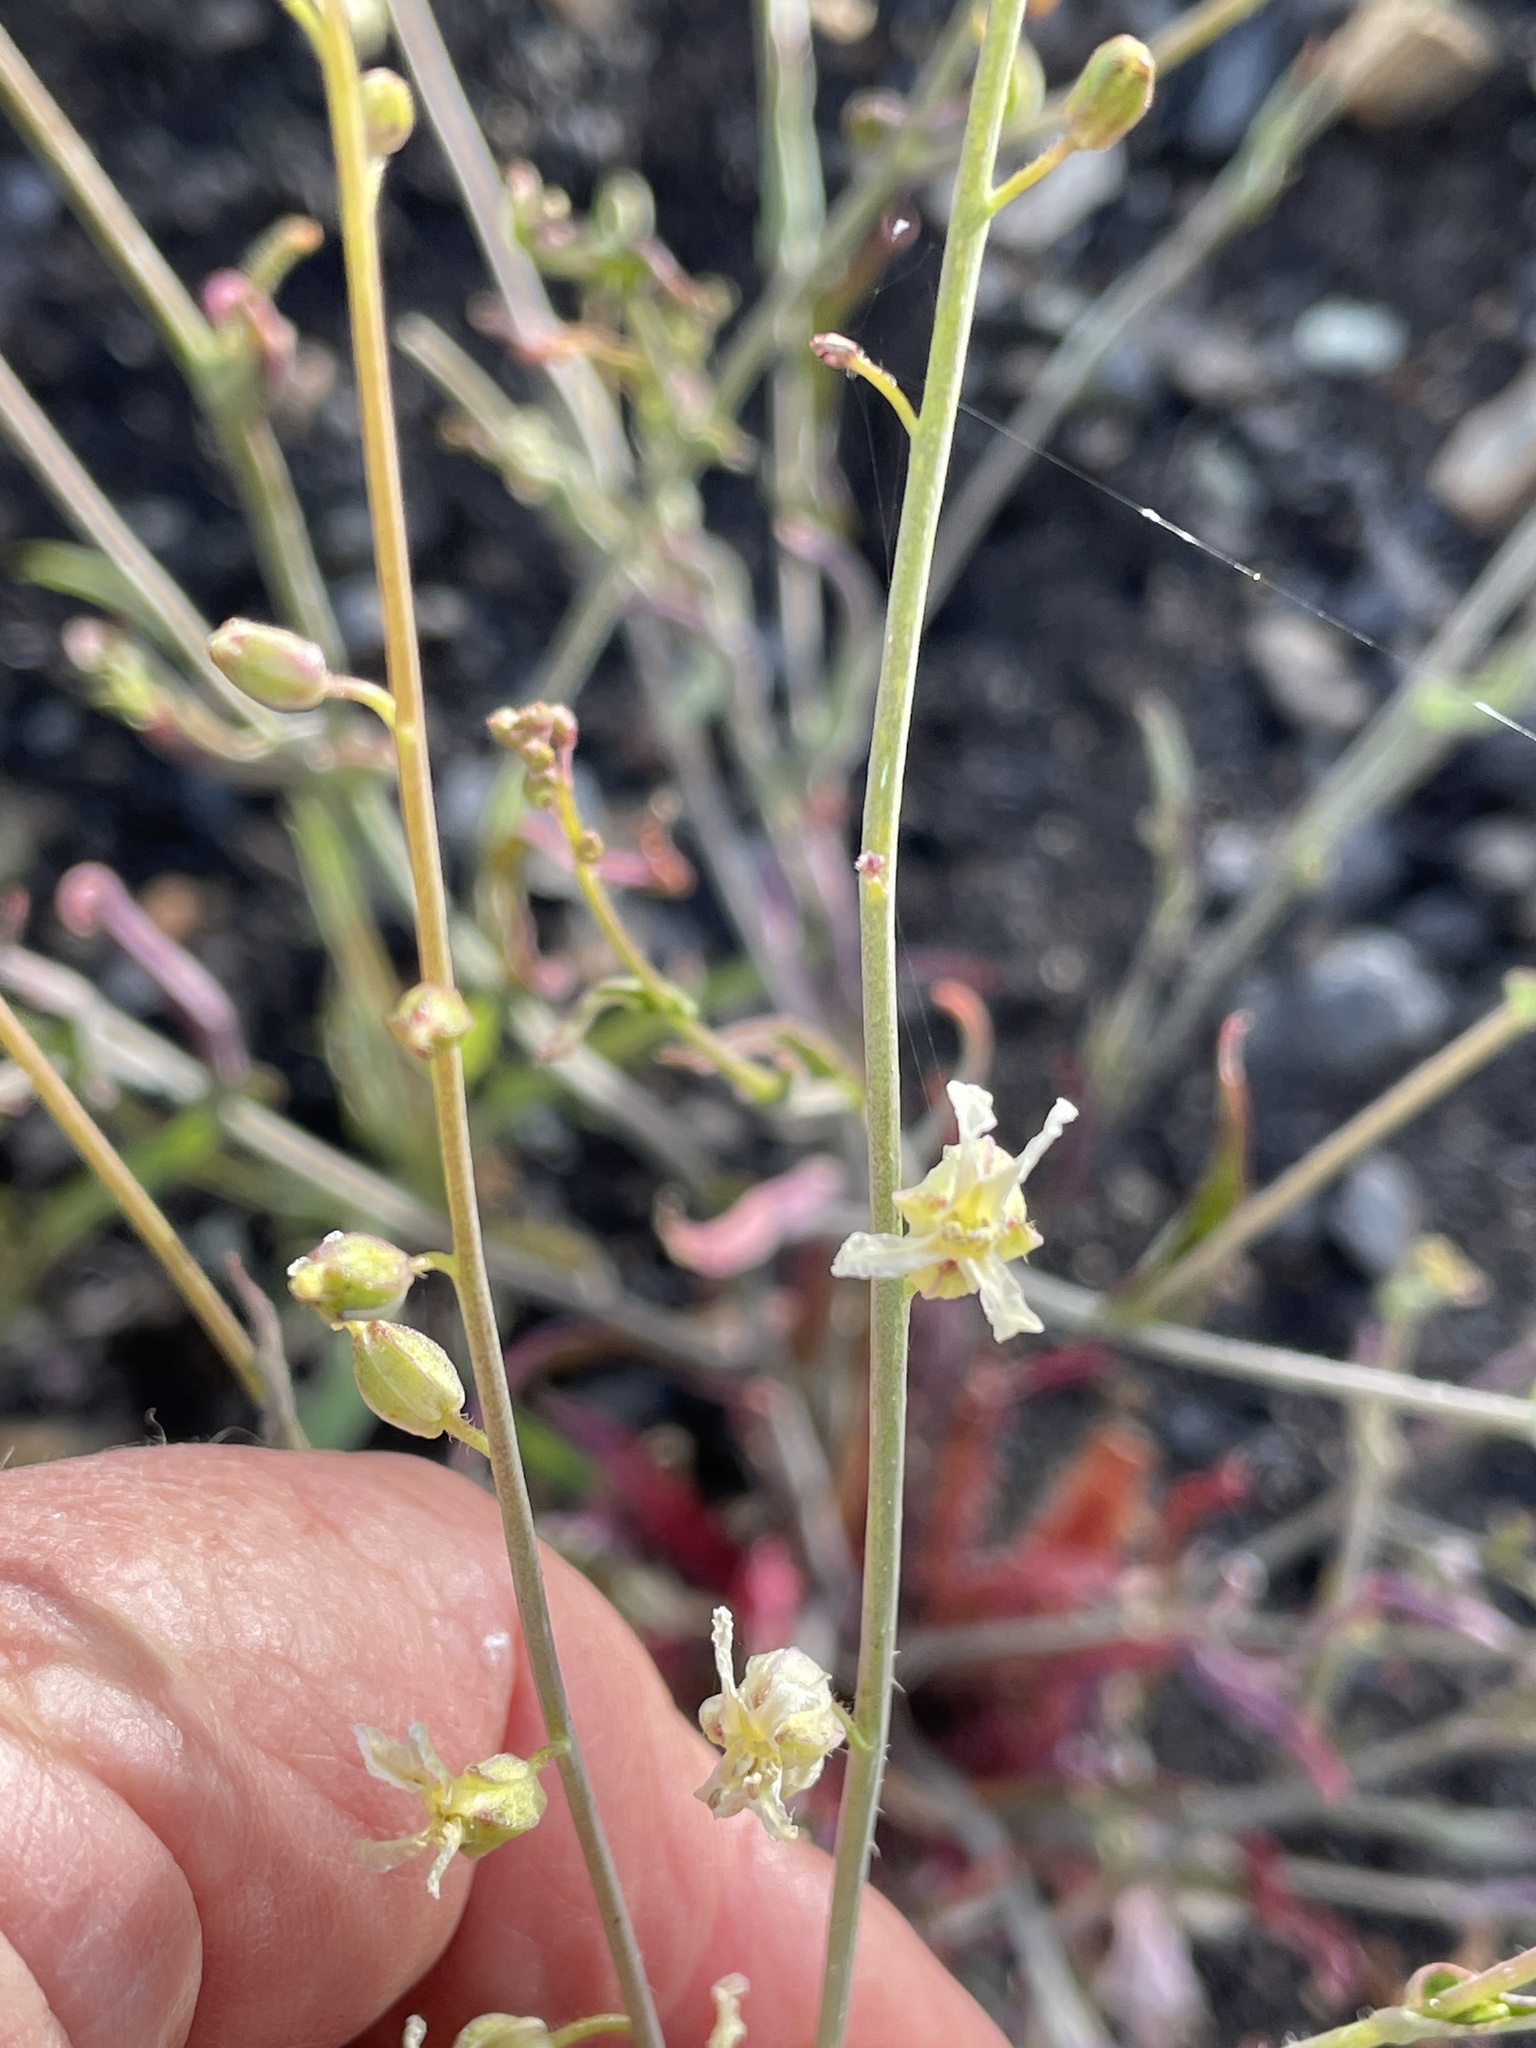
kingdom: Plantae
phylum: Tracheophyta
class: Magnoliopsida
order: Brassicales
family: Brassicaceae
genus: Streptanthus
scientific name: Streptanthus glandulosus
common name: Jewel-flower
